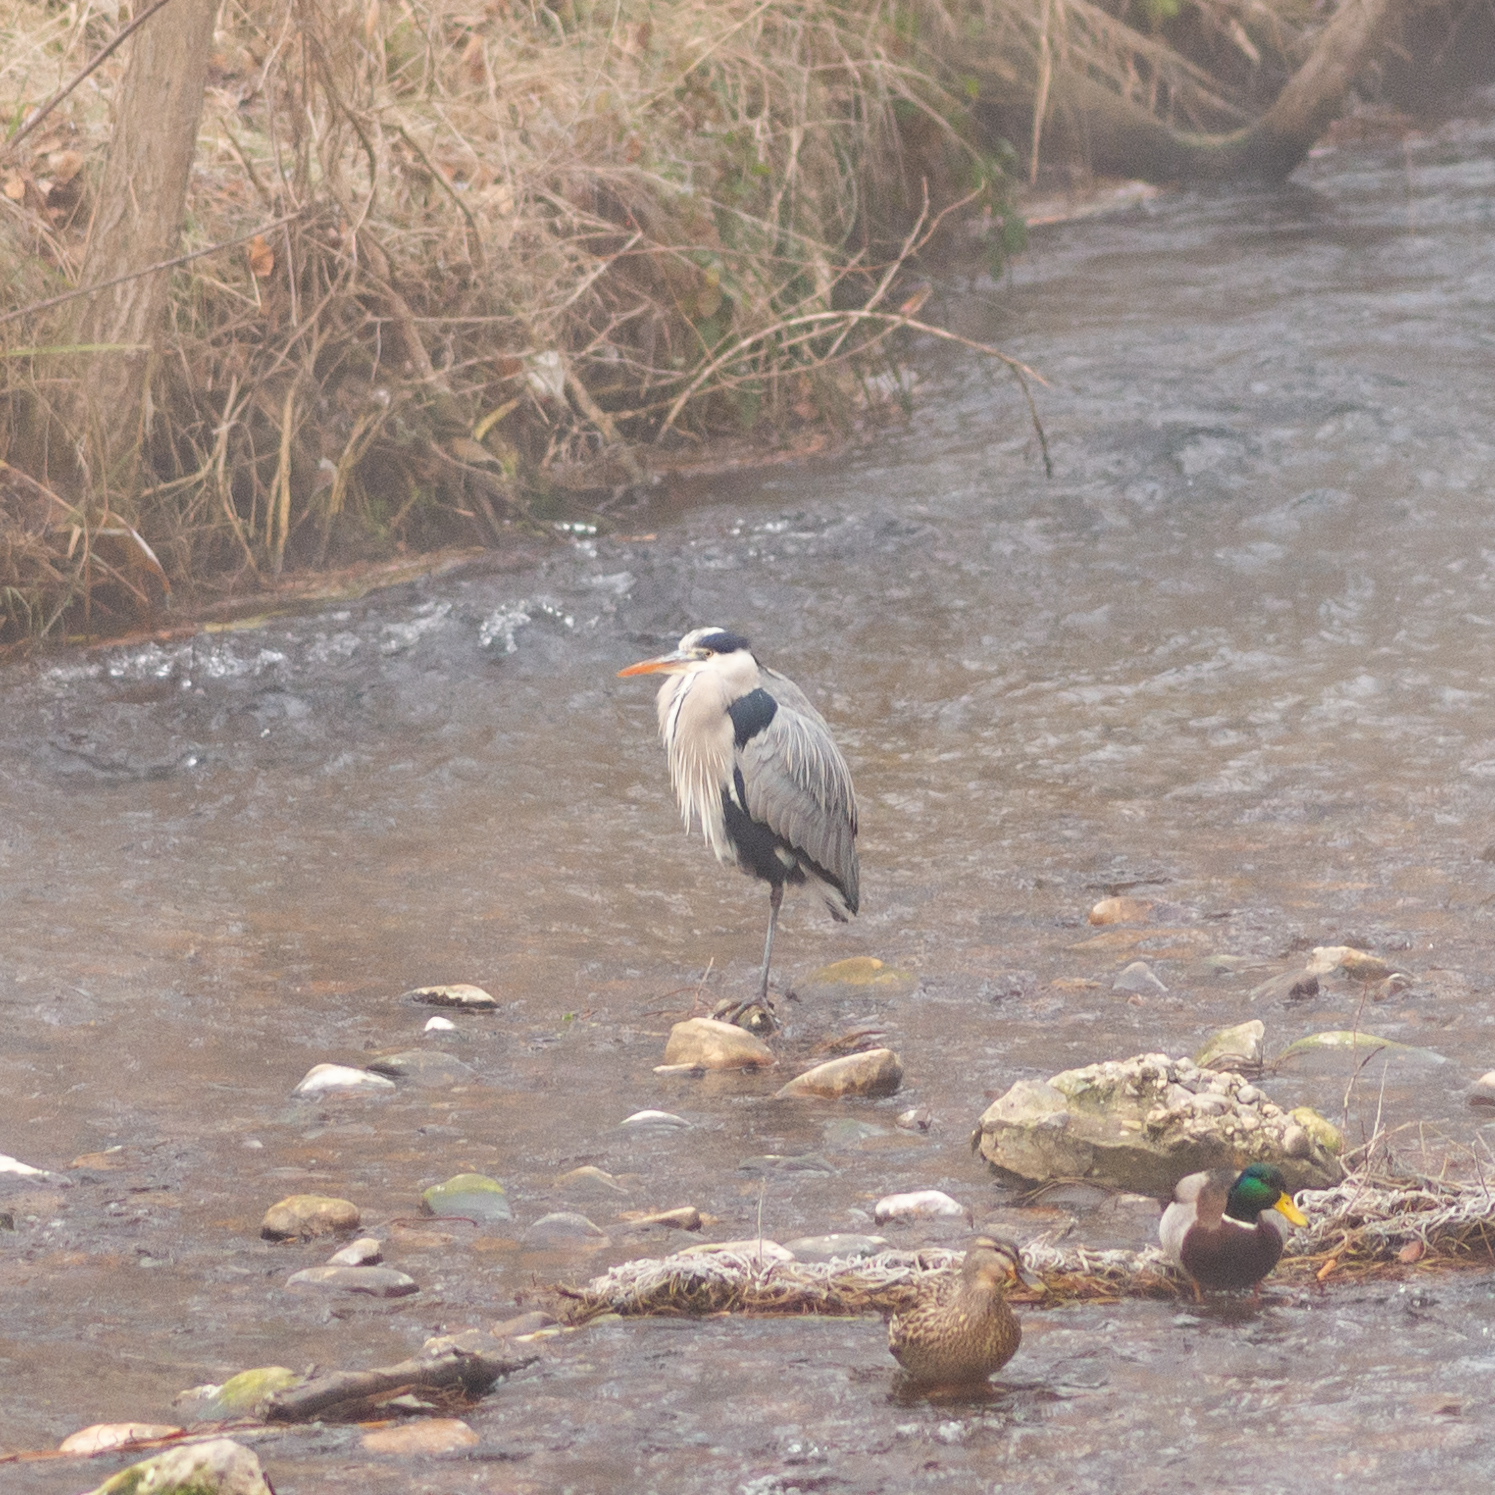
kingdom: Animalia
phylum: Chordata
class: Aves
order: Pelecaniformes
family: Ardeidae
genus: Ardea
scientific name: Ardea cinerea
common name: Grey heron
